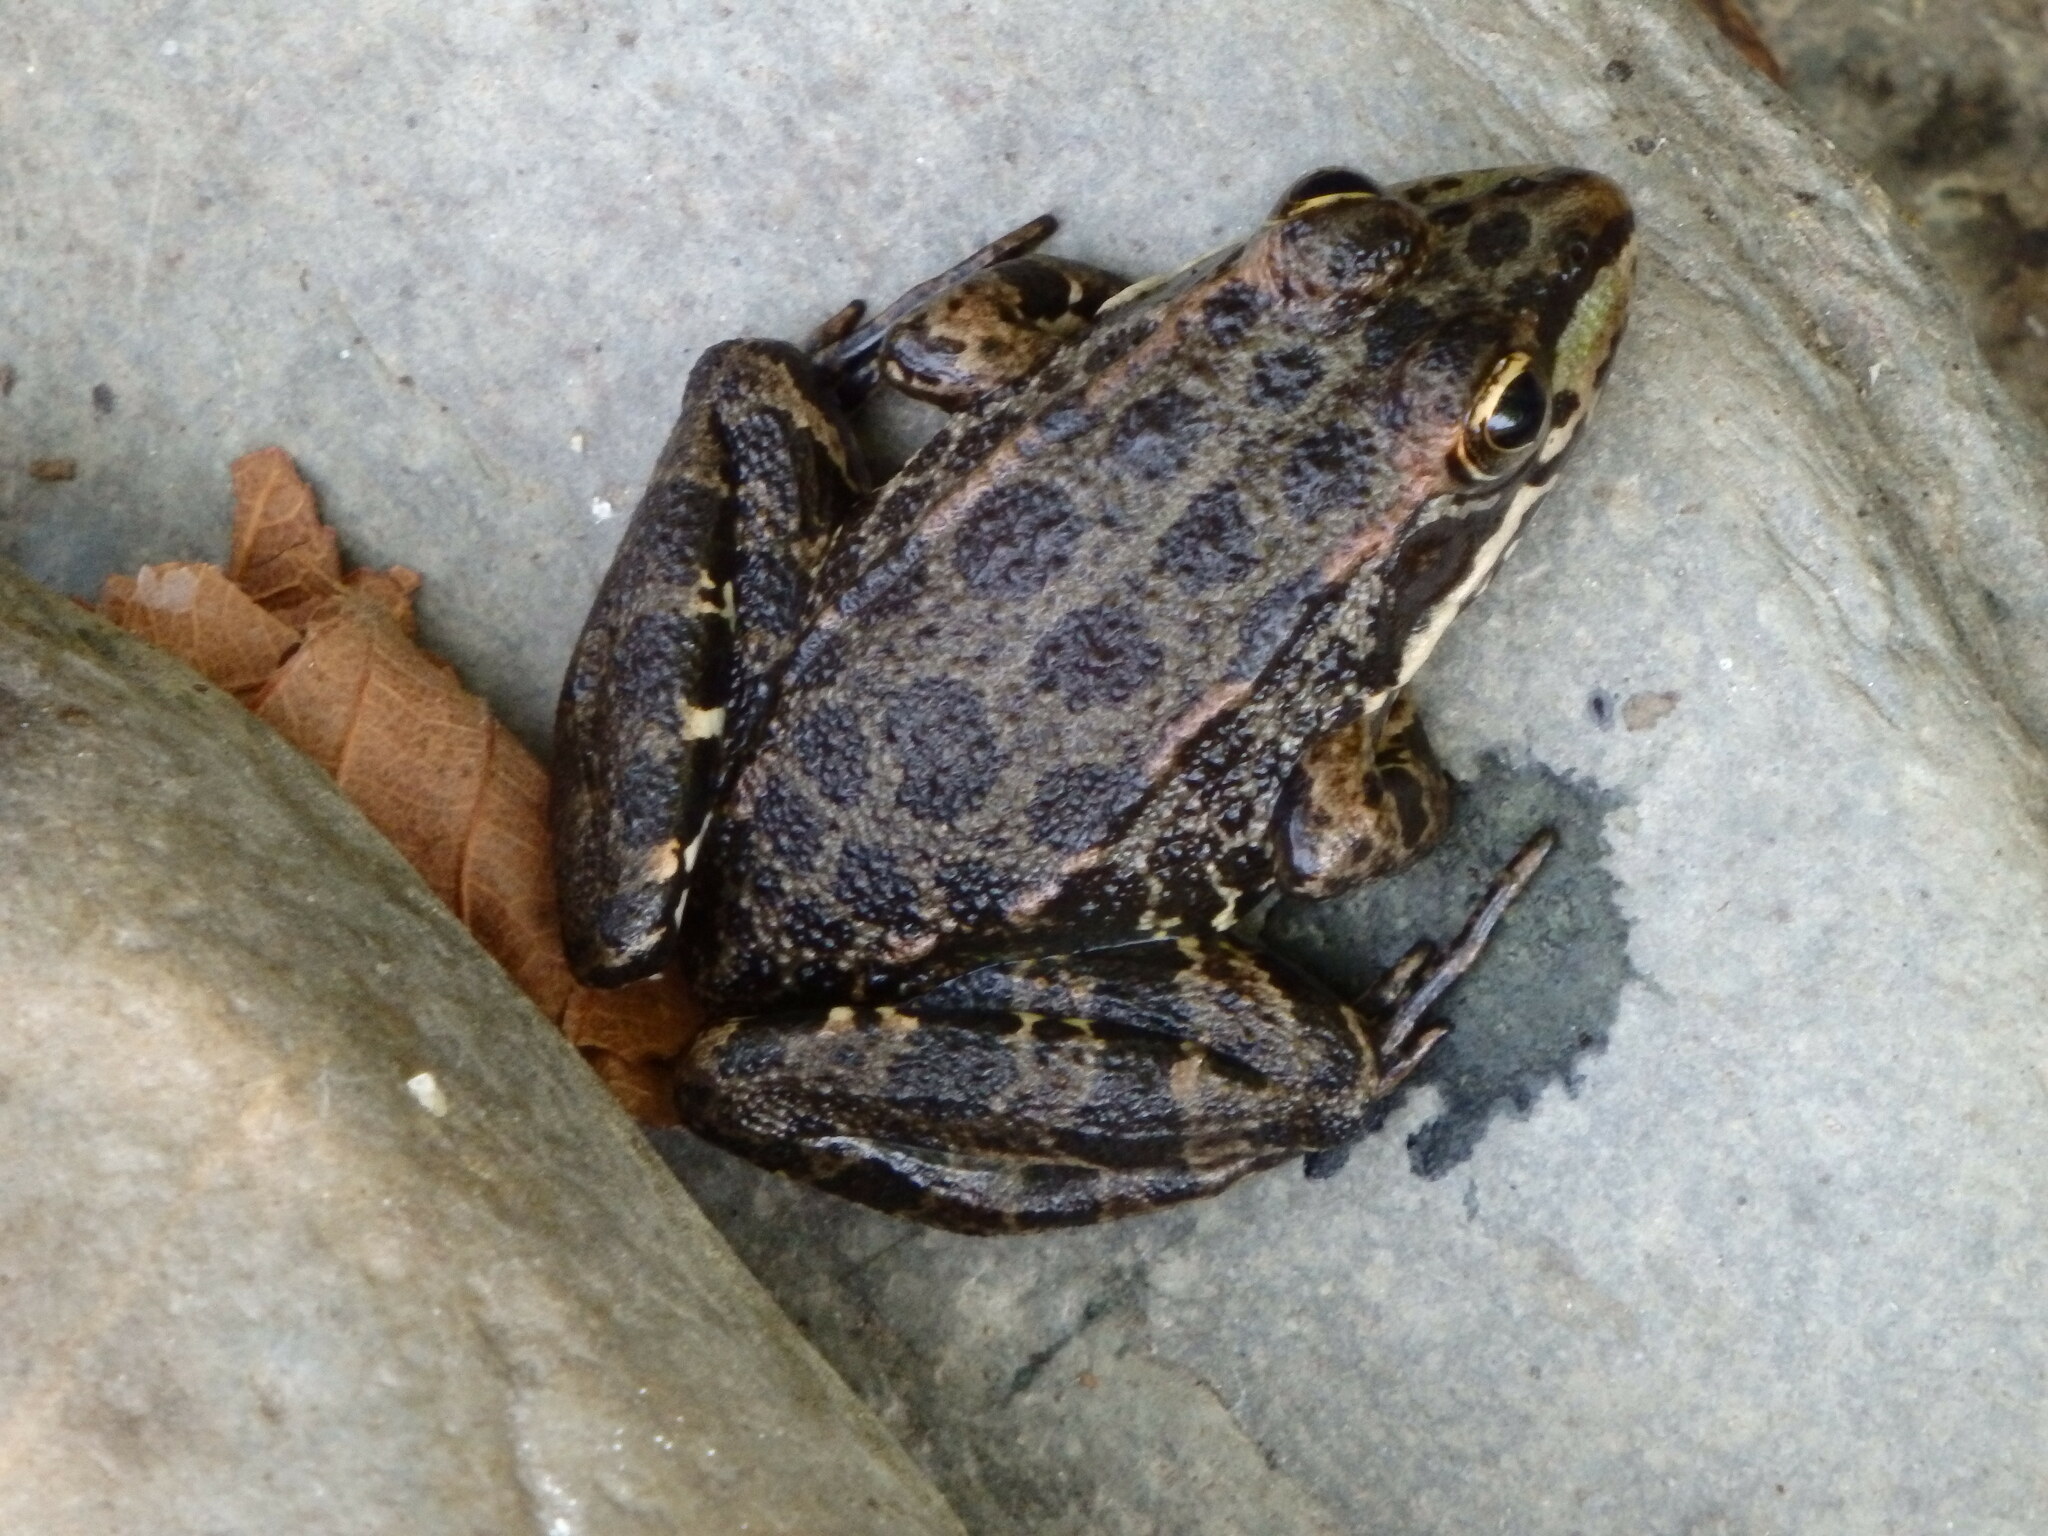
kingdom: Animalia
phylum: Chordata
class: Amphibia
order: Anura
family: Ranidae
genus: Pelophylax
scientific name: Pelophylax perezi
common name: Perez's frog
